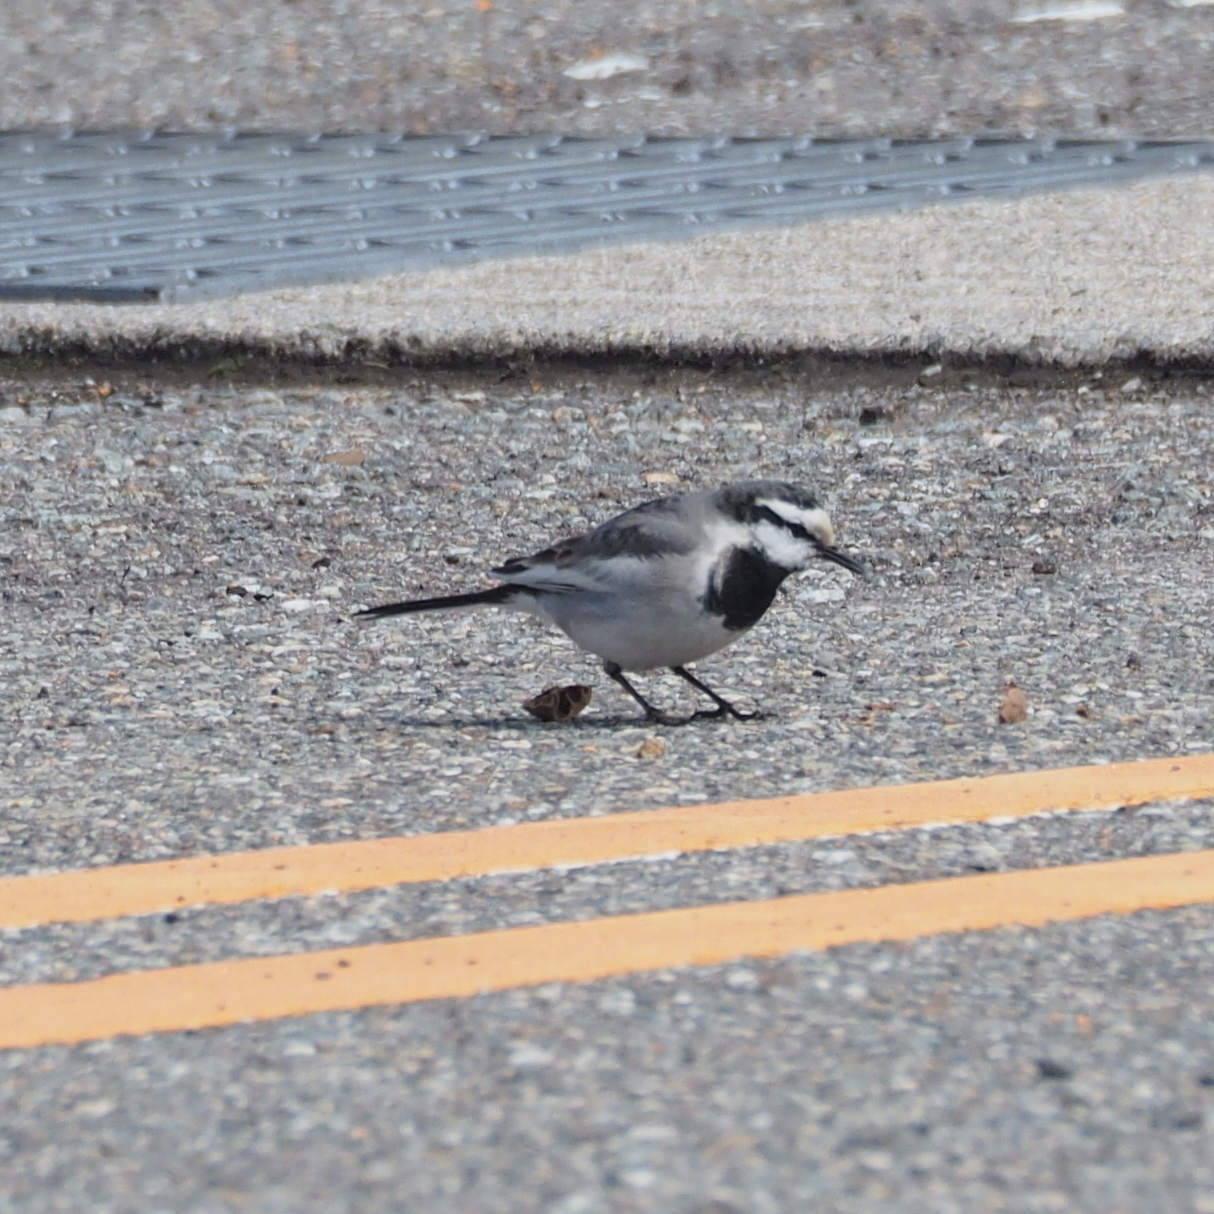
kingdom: Animalia
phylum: Chordata
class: Aves
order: Passeriformes
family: Motacillidae
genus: Motacilla
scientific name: Motacilla alba
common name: White wagtail
